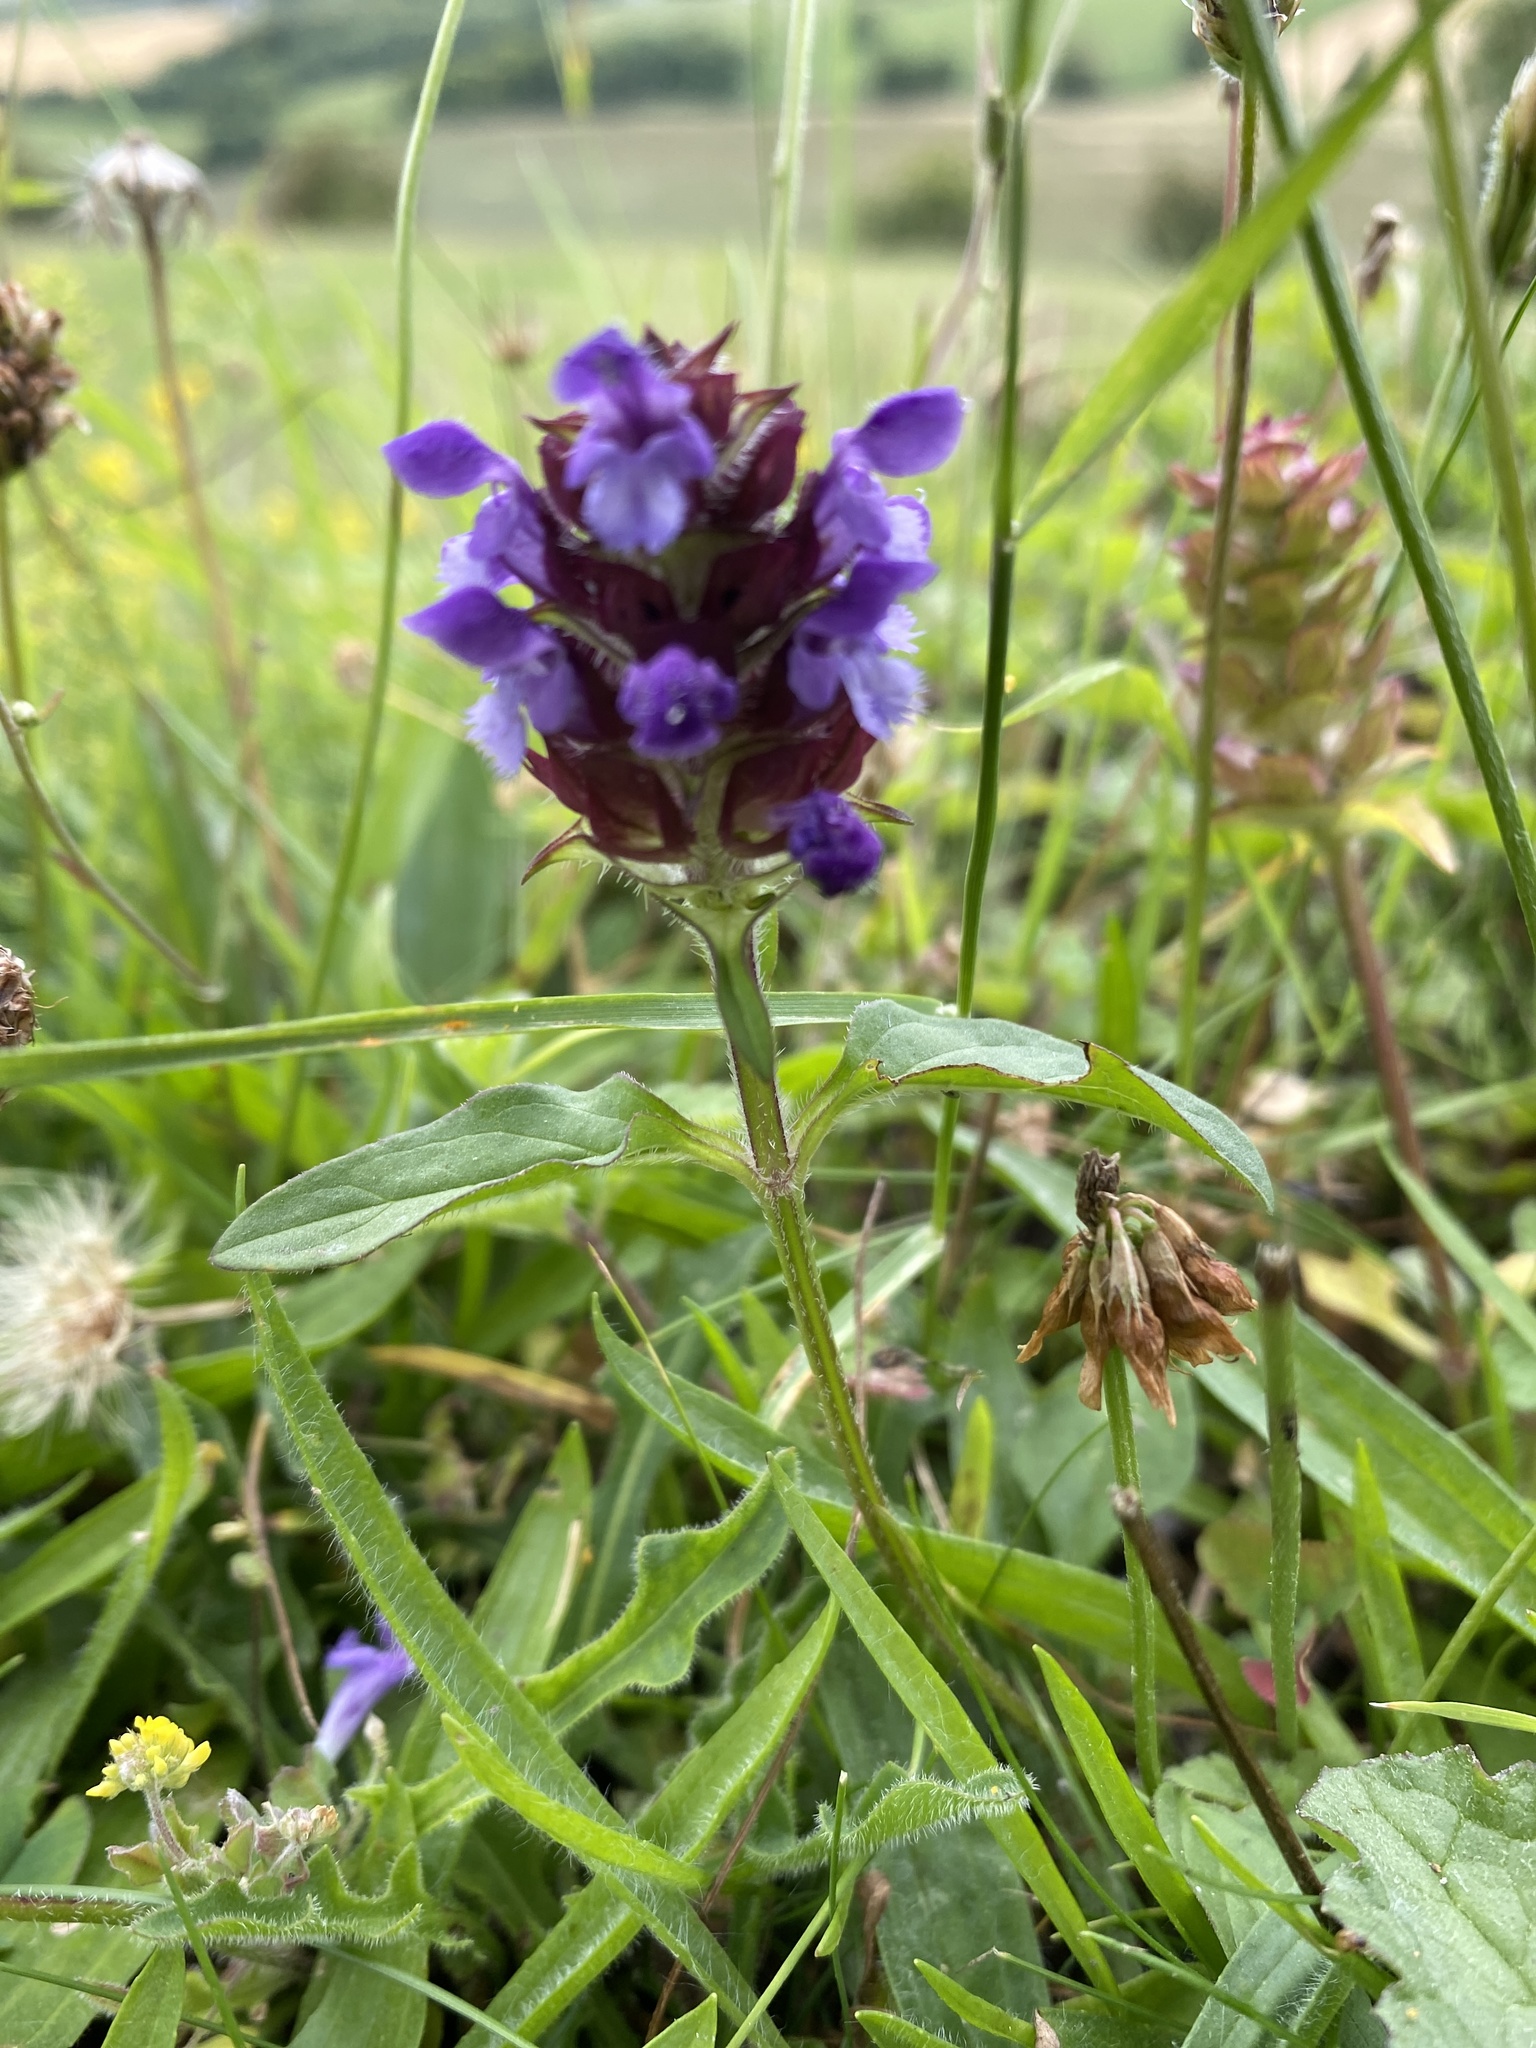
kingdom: Plantae
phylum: Tracheophyta
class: Magnoliopsida
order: Lamiales
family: Lamiaceae
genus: Prunella
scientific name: Prunella vulgaris
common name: Heal-all
